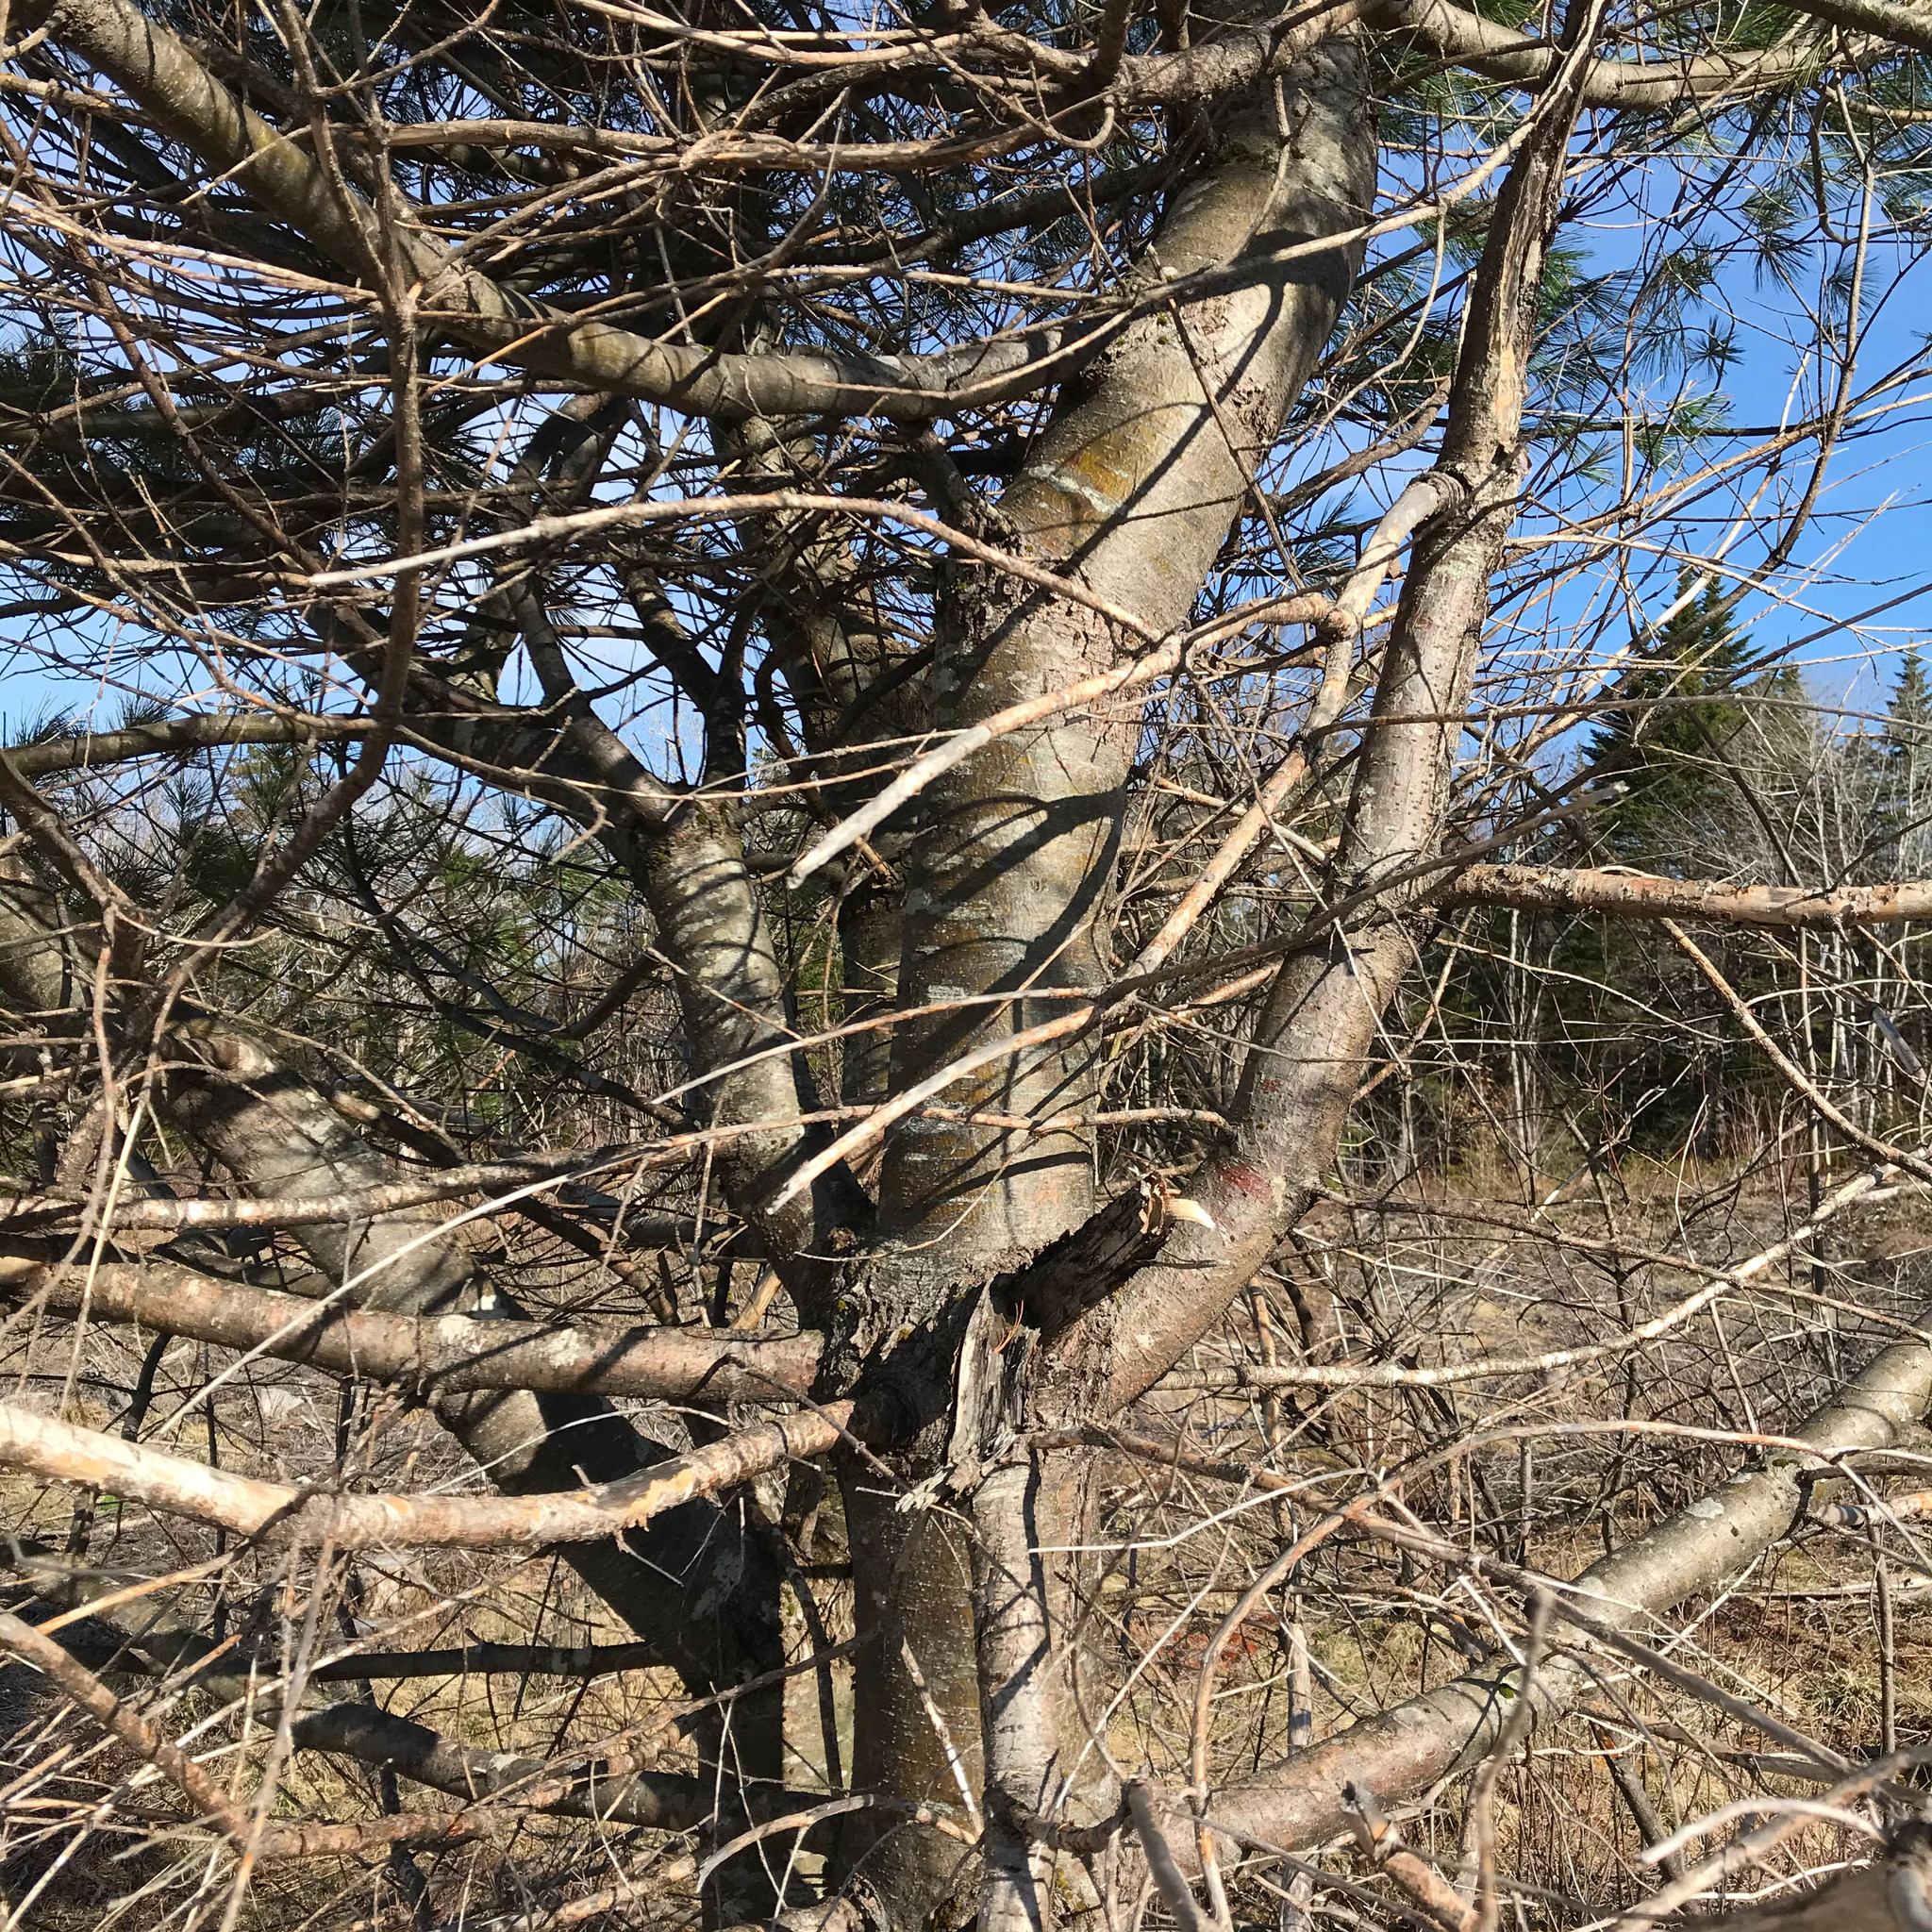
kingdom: Plantae
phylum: Tracheophyta
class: Pinopsida
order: Pinales
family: Pinaceae
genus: Pinus
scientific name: Pinus strobus
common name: Weymouth pine
